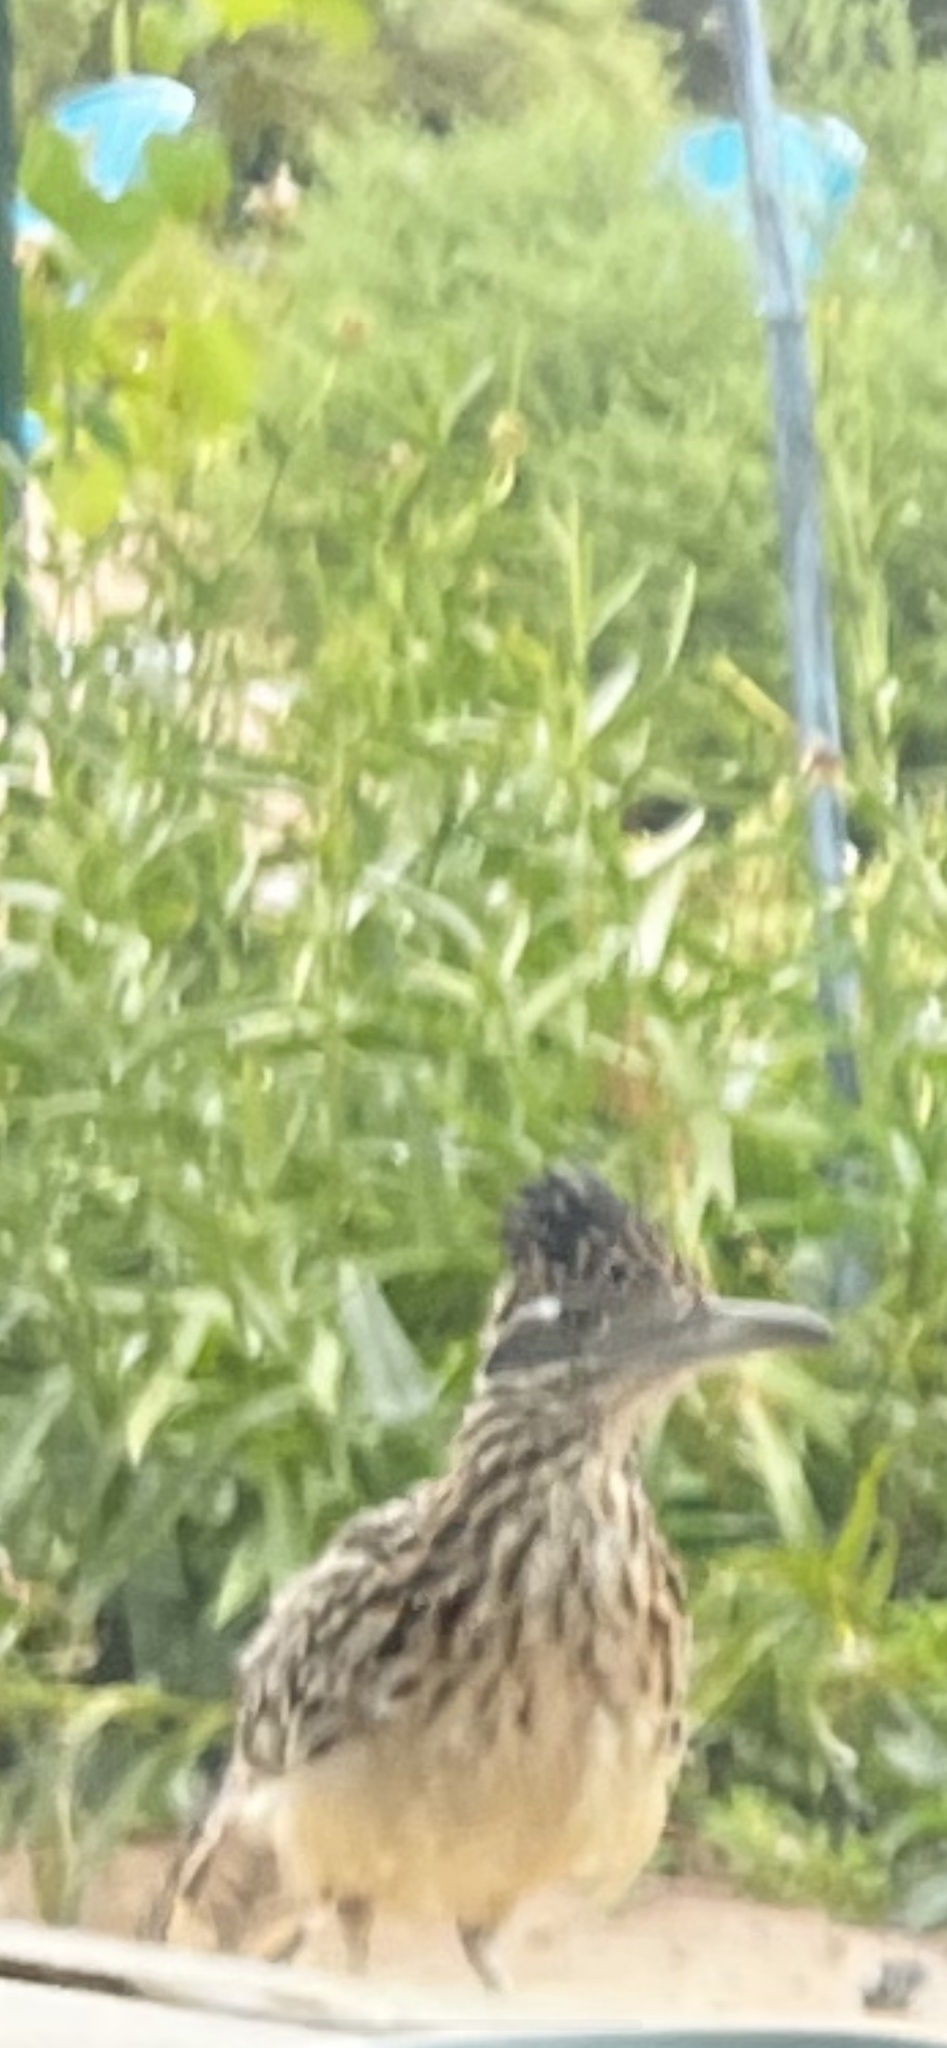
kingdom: Animalia
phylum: Chordata
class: Aves
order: Cuculiformes
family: Cuculidae
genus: Geococcyx
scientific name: Geococcyx californianus
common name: Greater roadrunner
